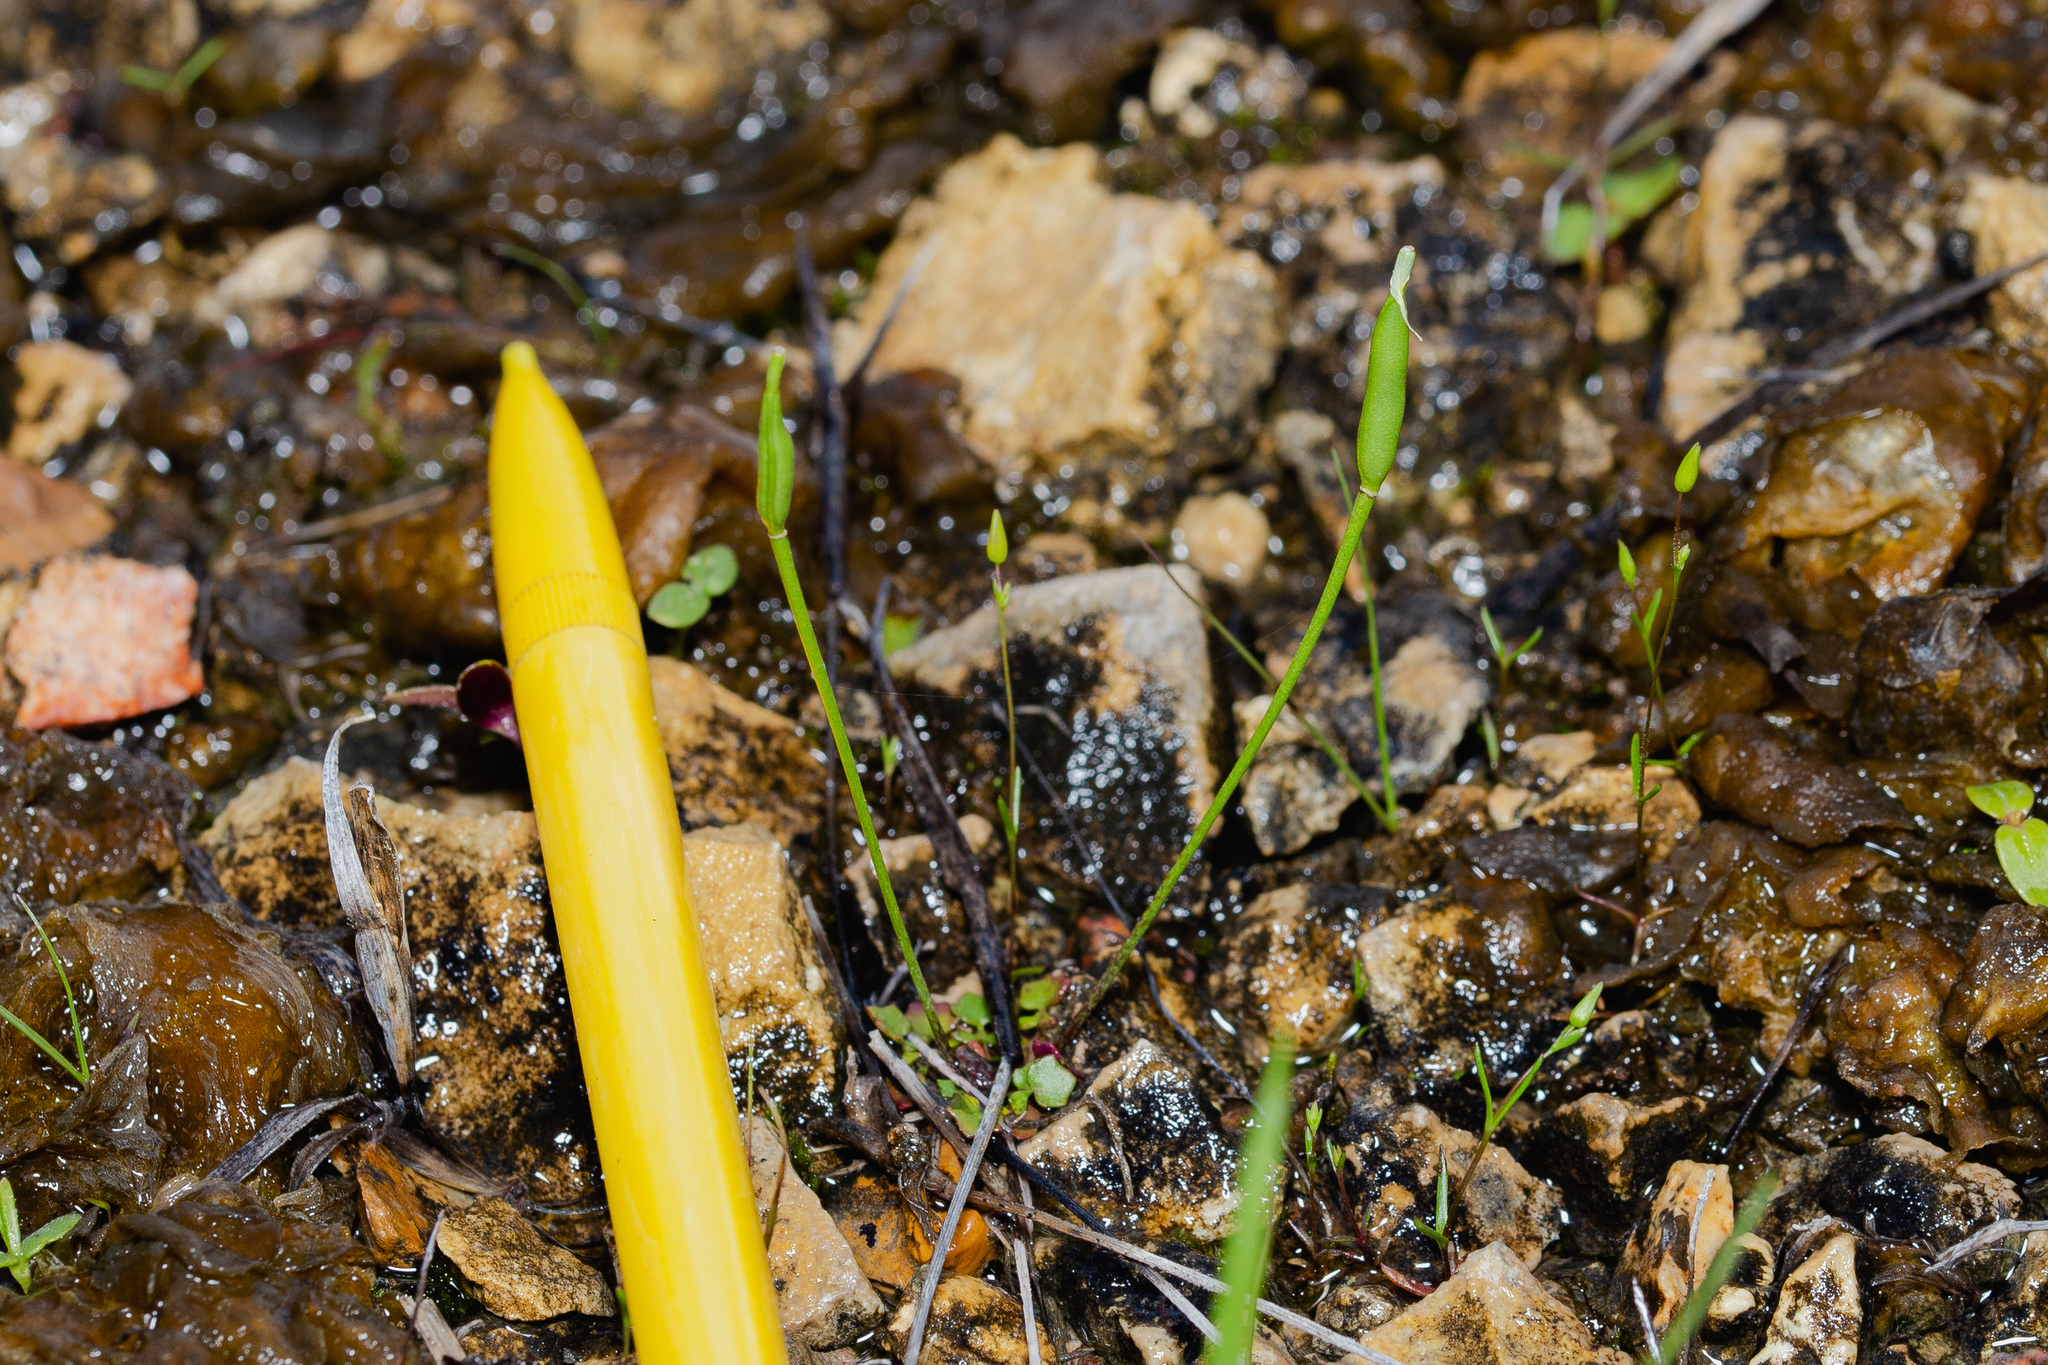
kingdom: Plantae
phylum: Tracheophyta
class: Magnoliopsida
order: Brassicales
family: Brassicaceae
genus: Leavenworthia
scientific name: Leavenworthia uniflora
